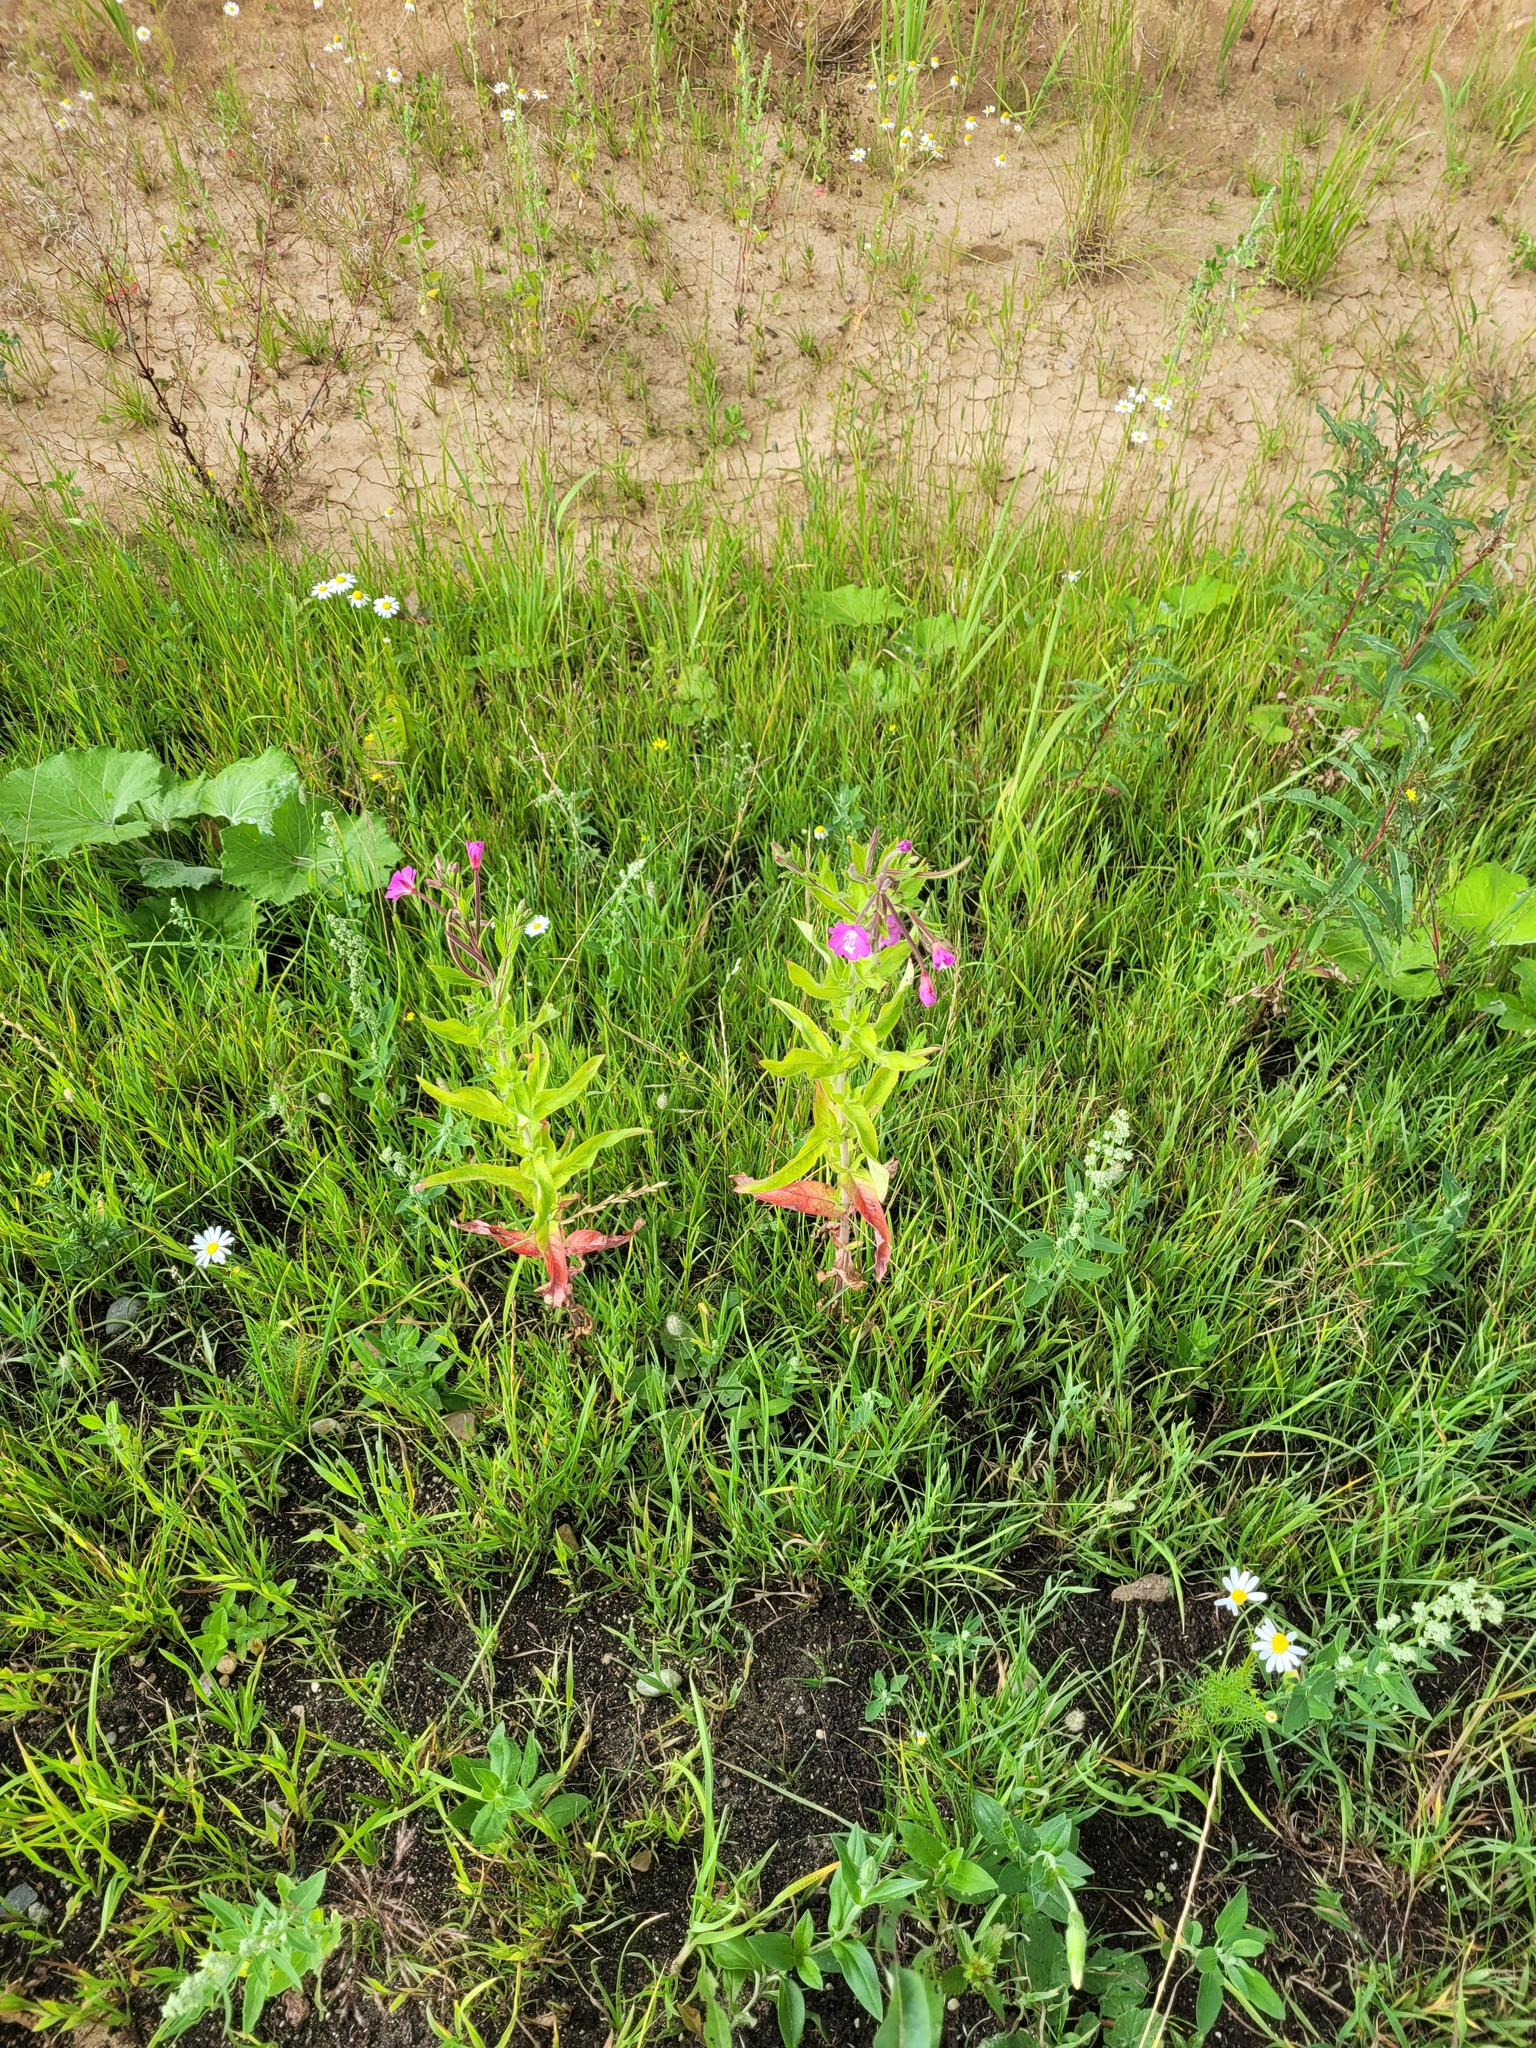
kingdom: Plantae
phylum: Tracheophyta
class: Magnoliopsida
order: Myrtales
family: Onagraceae
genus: Epilobium
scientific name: Epilobium hirsutum
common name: Great willowherb
